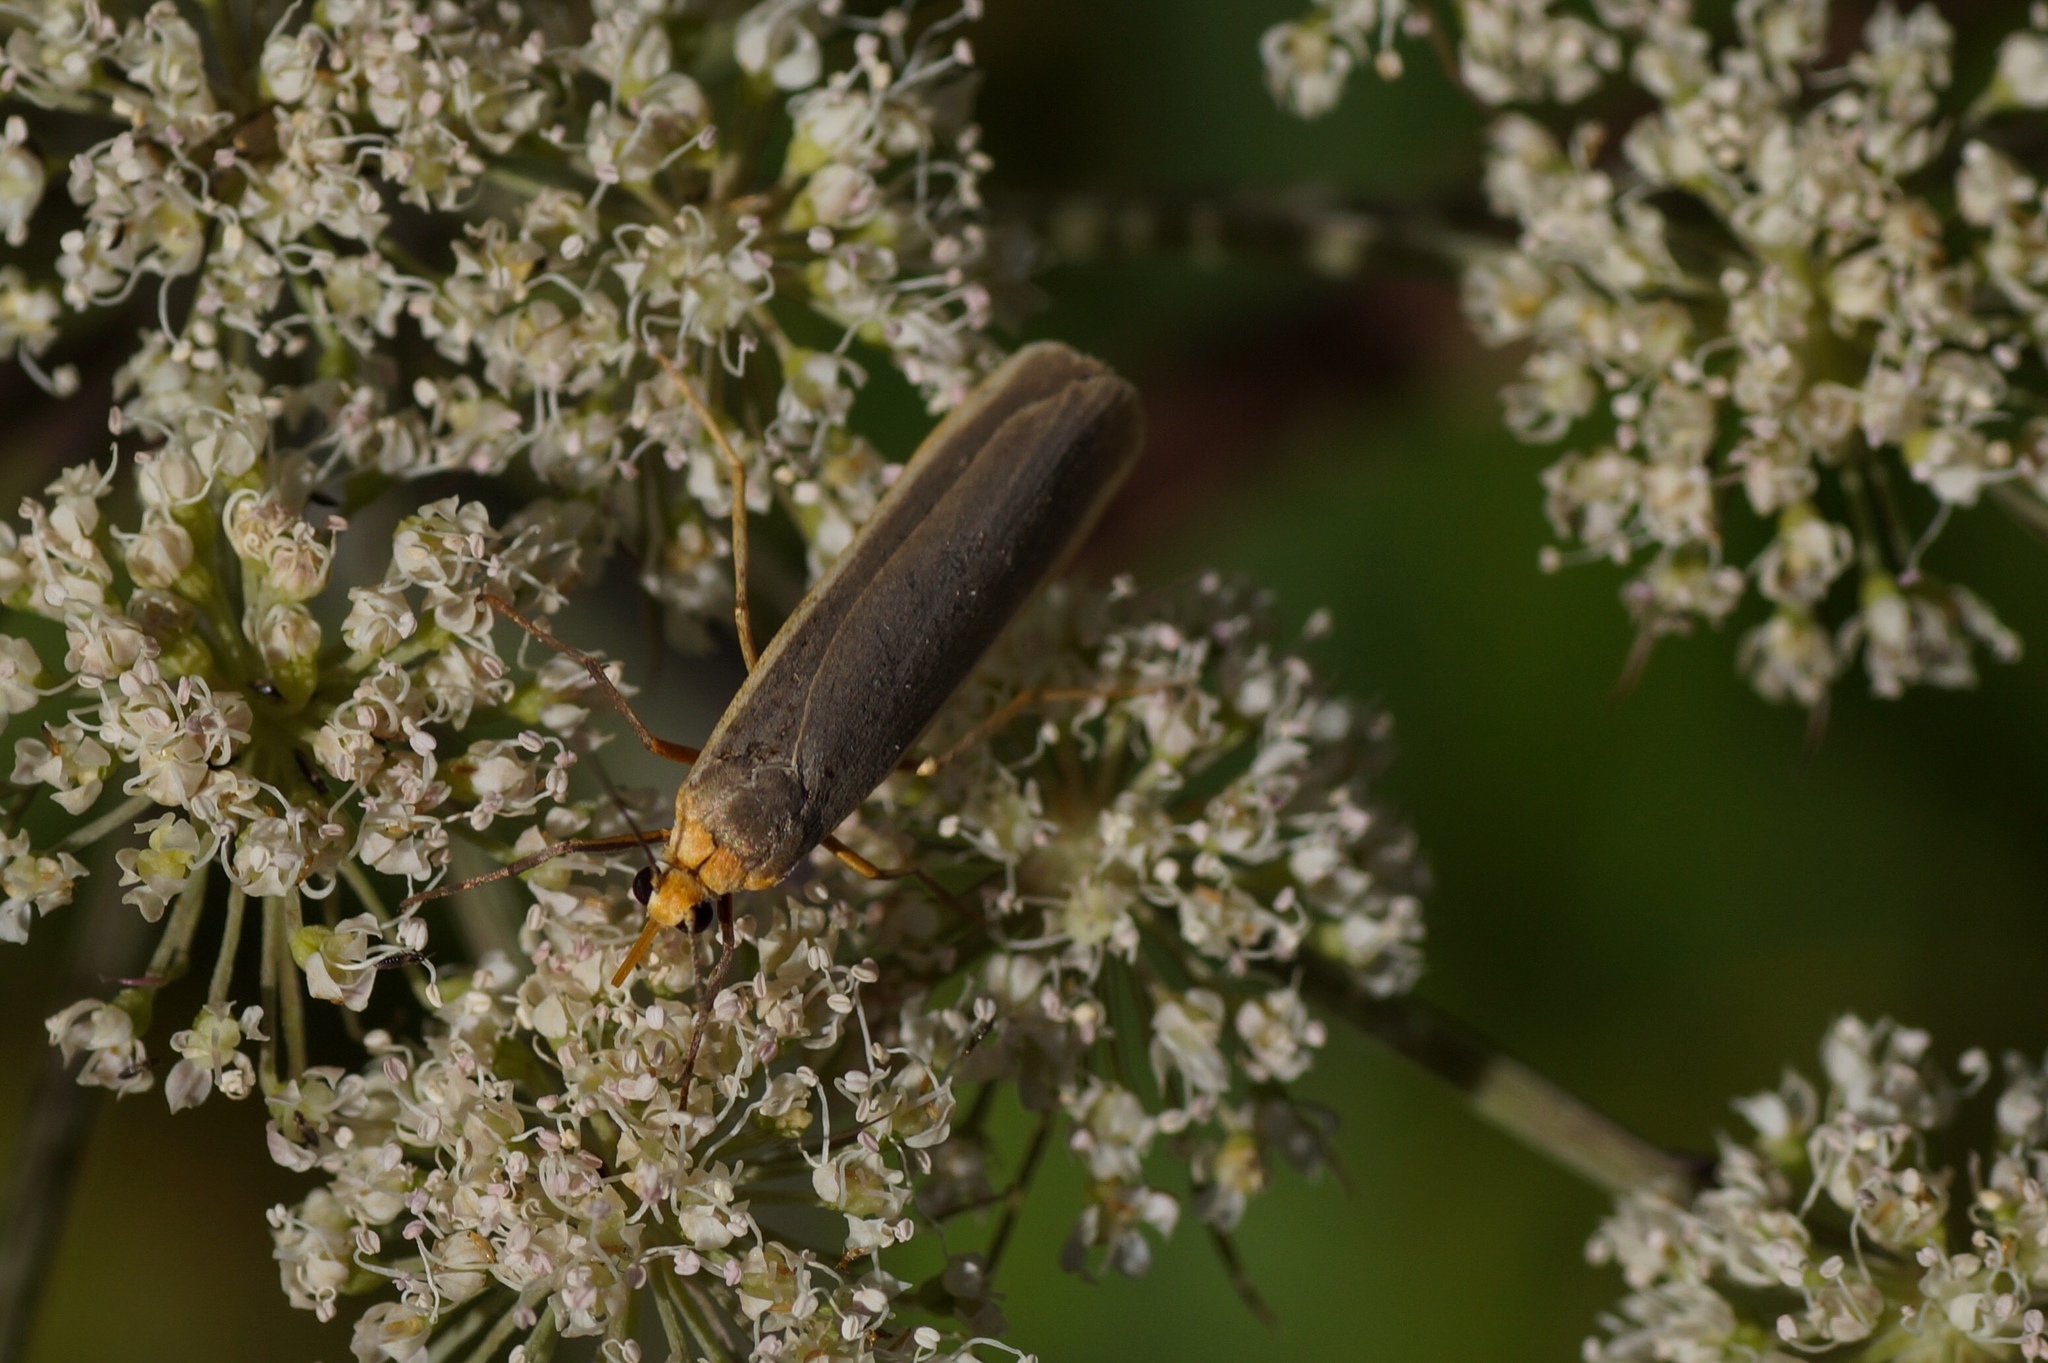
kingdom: Animalia
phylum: Arthropoda
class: Insecta
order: Lepidoptera
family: Erebidae
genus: Nyea
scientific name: Nyea lurideola
